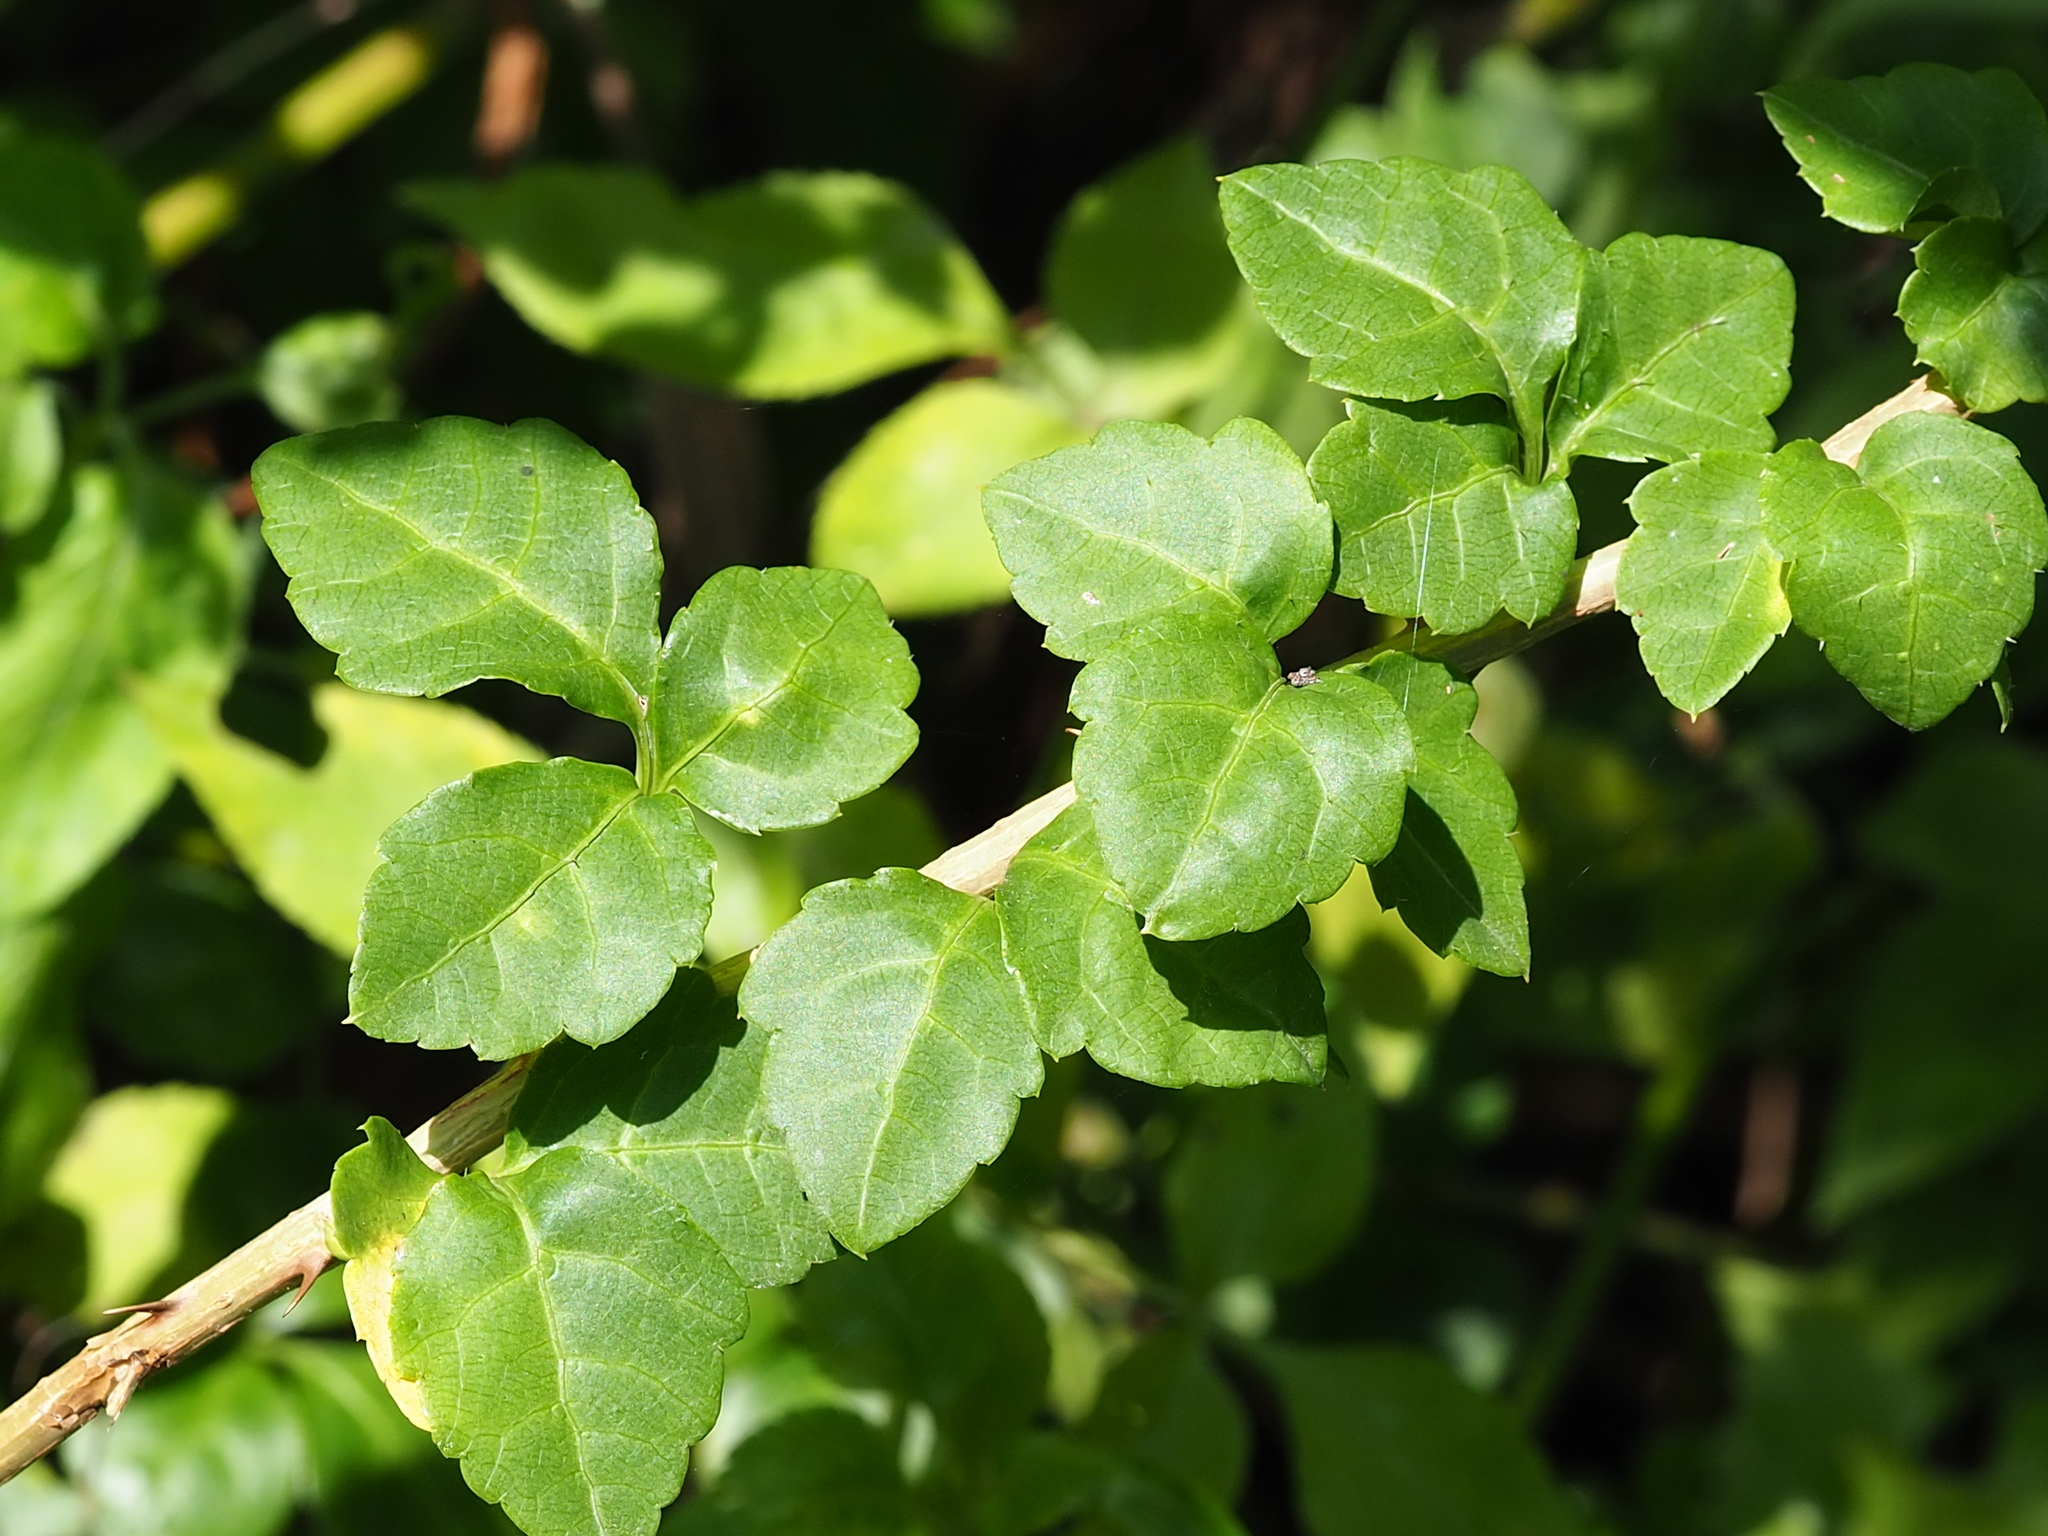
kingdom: Plantae
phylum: Tracheophyta
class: Magnoliopsida
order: Apiales
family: Araliaceae
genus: Eleutherococcus
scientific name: Eleutherococcus trifoliatus
